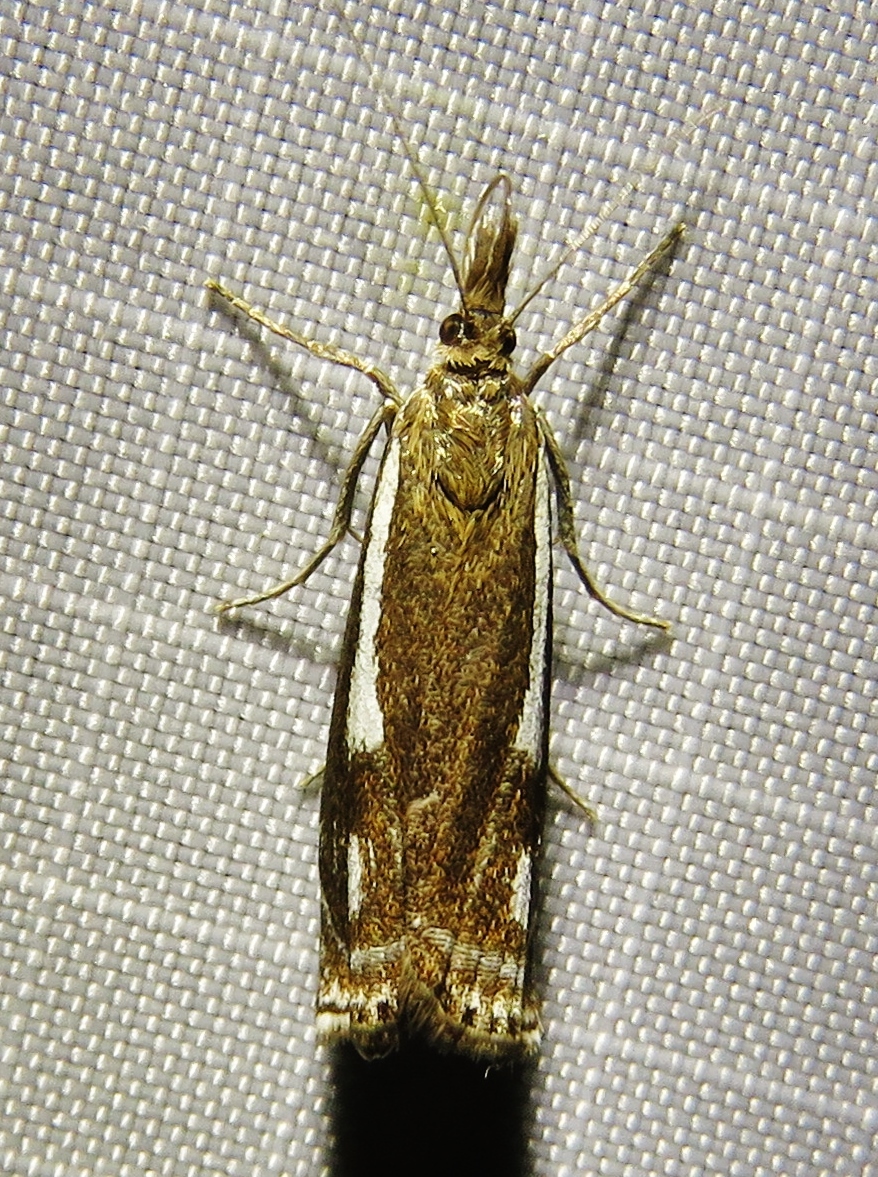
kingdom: Animalia
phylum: Arthropoda
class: Insecta
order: Lepidoptera
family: Crambidae
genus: Crambus
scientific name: Crambus heringiellus
